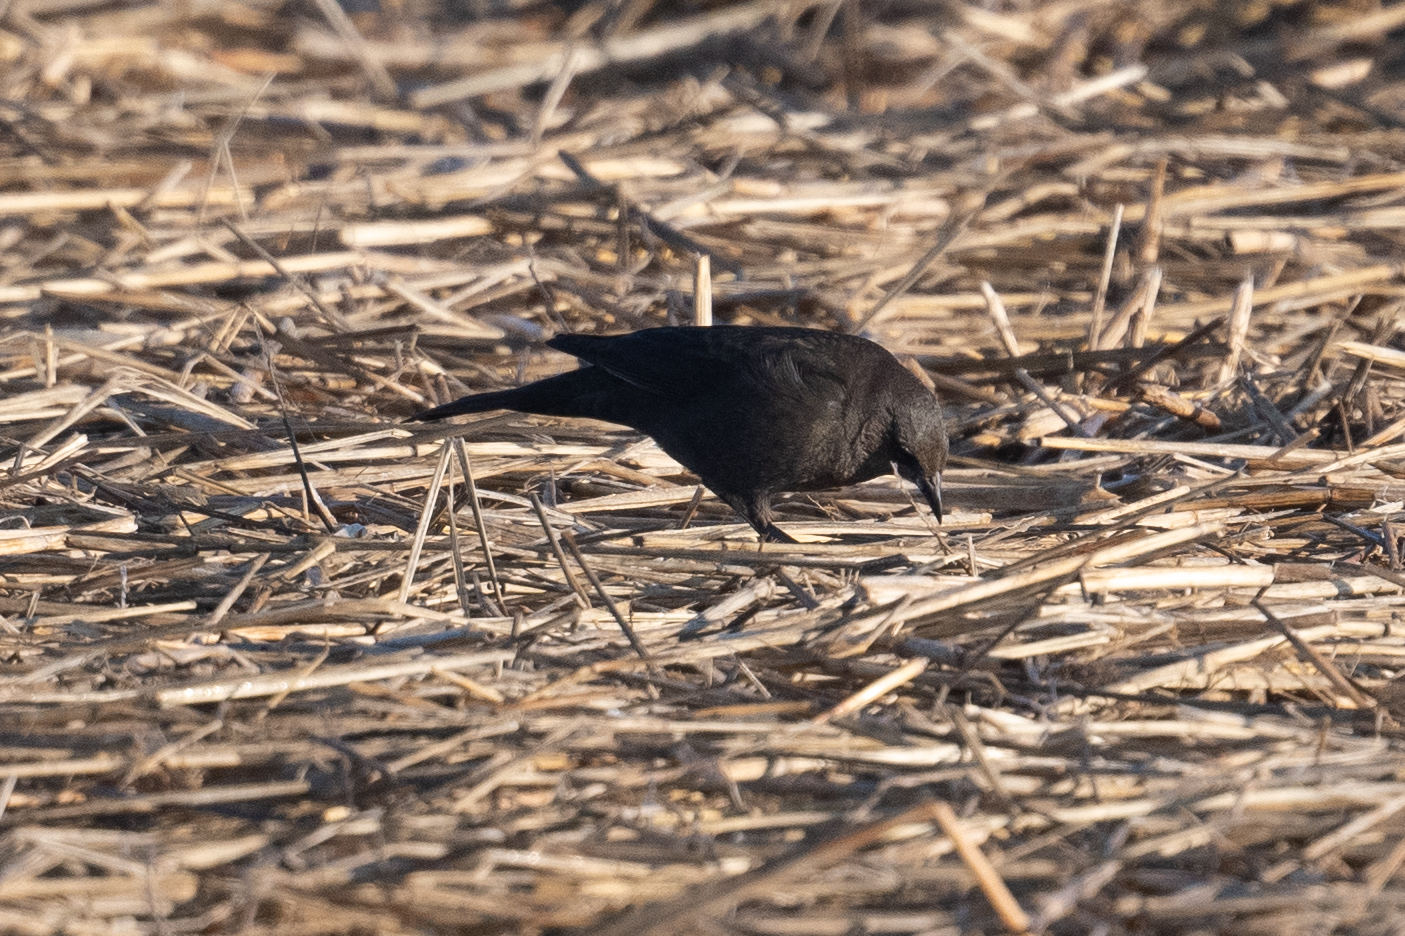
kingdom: Animalia
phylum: Chordata
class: Aves
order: Passeriformes
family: Icteridae
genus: Euphagus
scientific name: Euphagus cyanocephalus
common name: Brewer's blackbird
